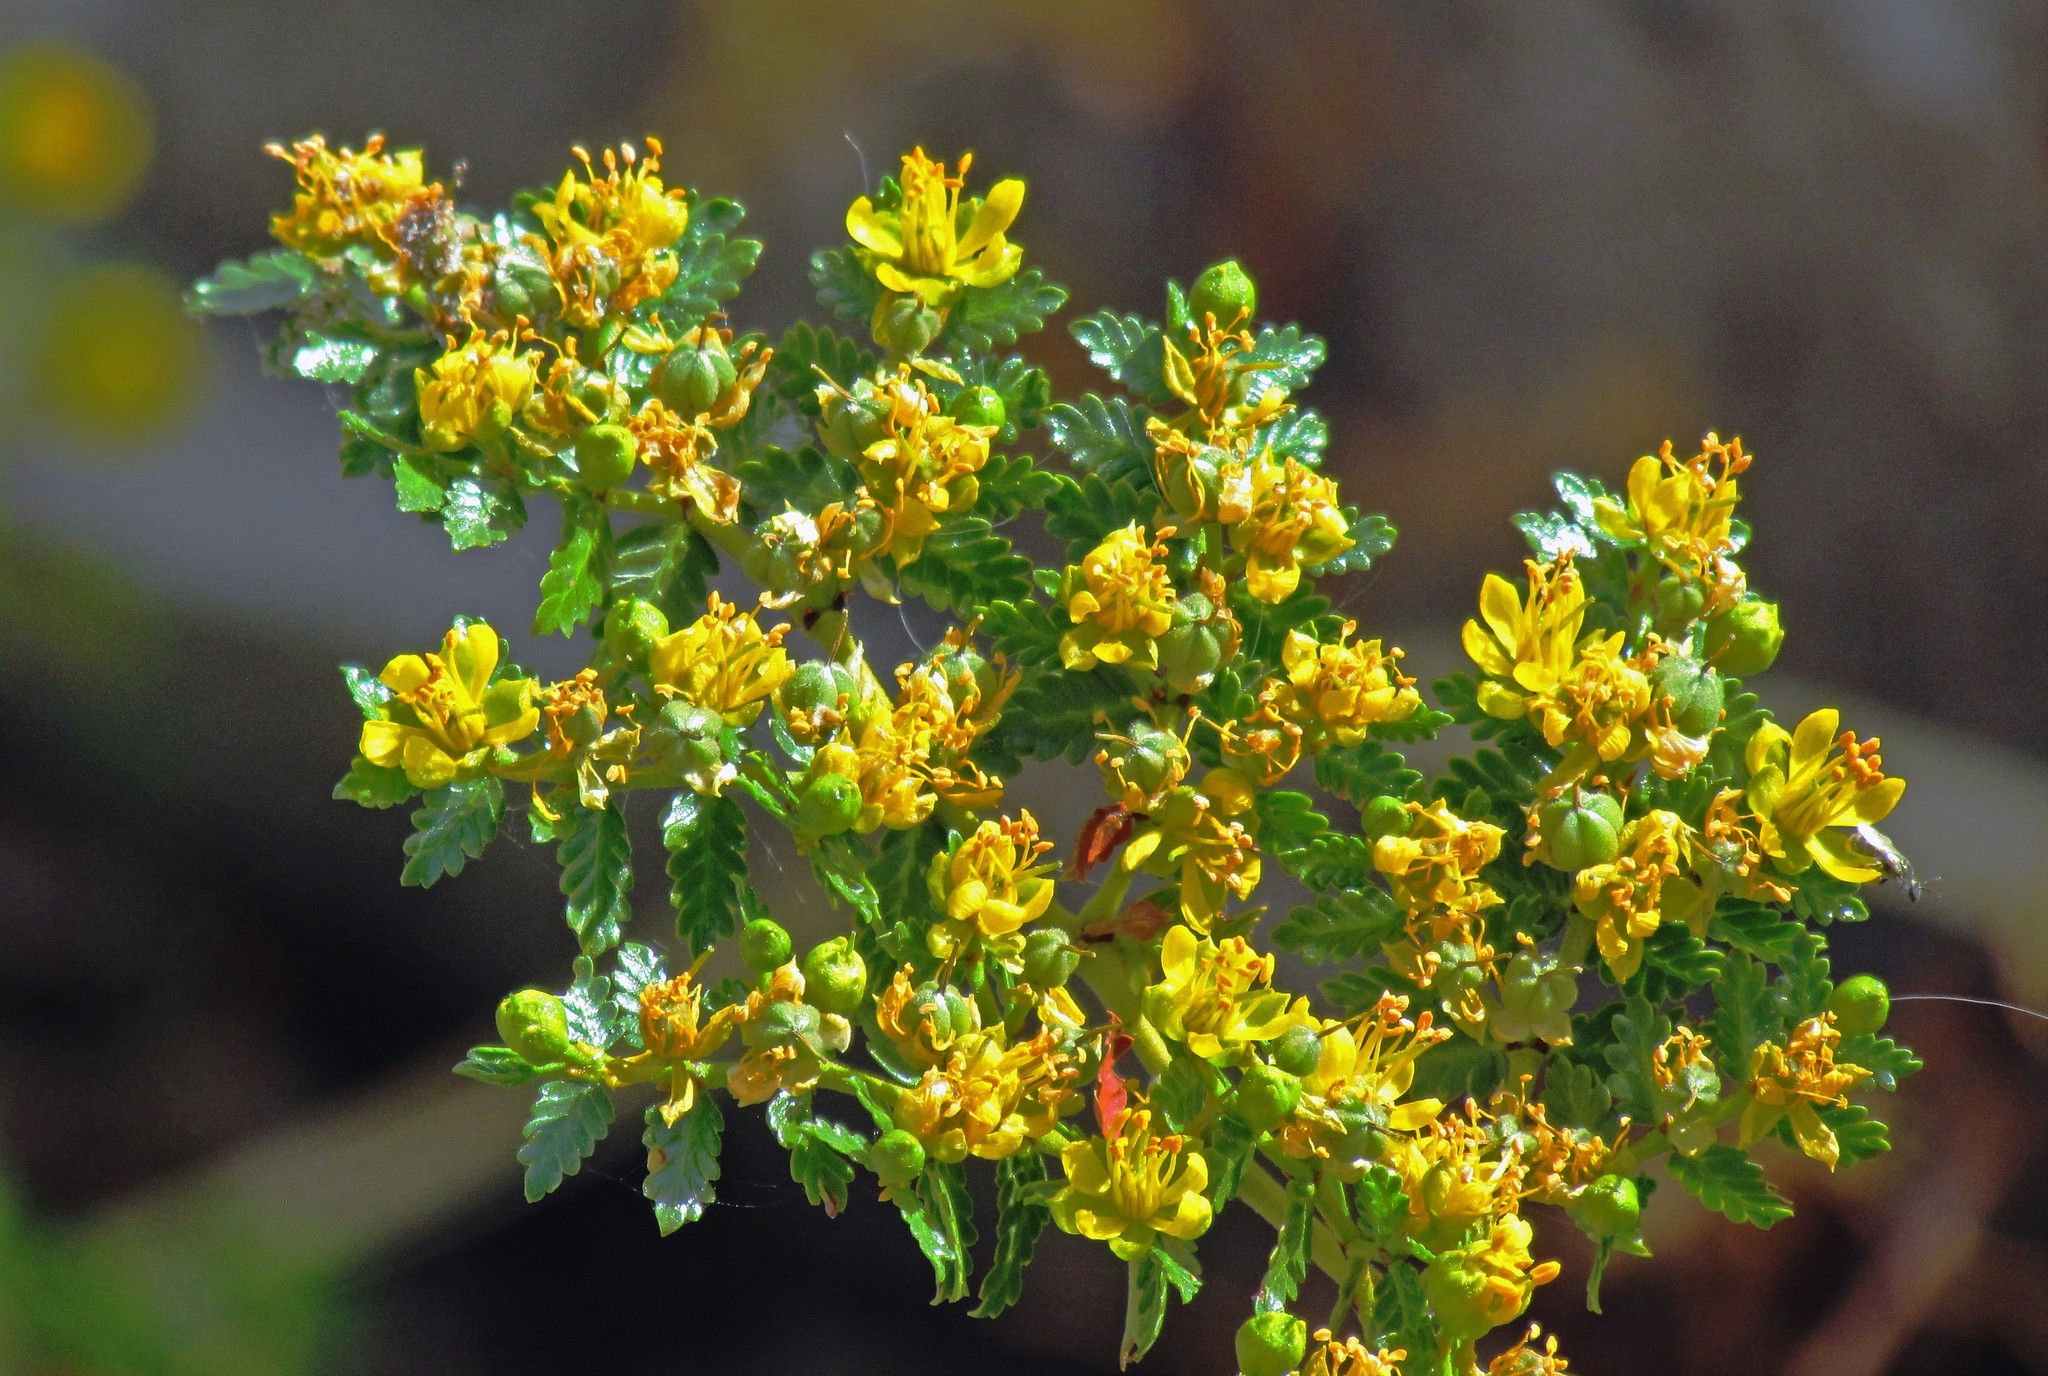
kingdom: Plantae
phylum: Tracheophyta
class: Magnoliopsida
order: Zygophyllales
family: Zygophyllaceae
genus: Larrea
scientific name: Larrea nitida
